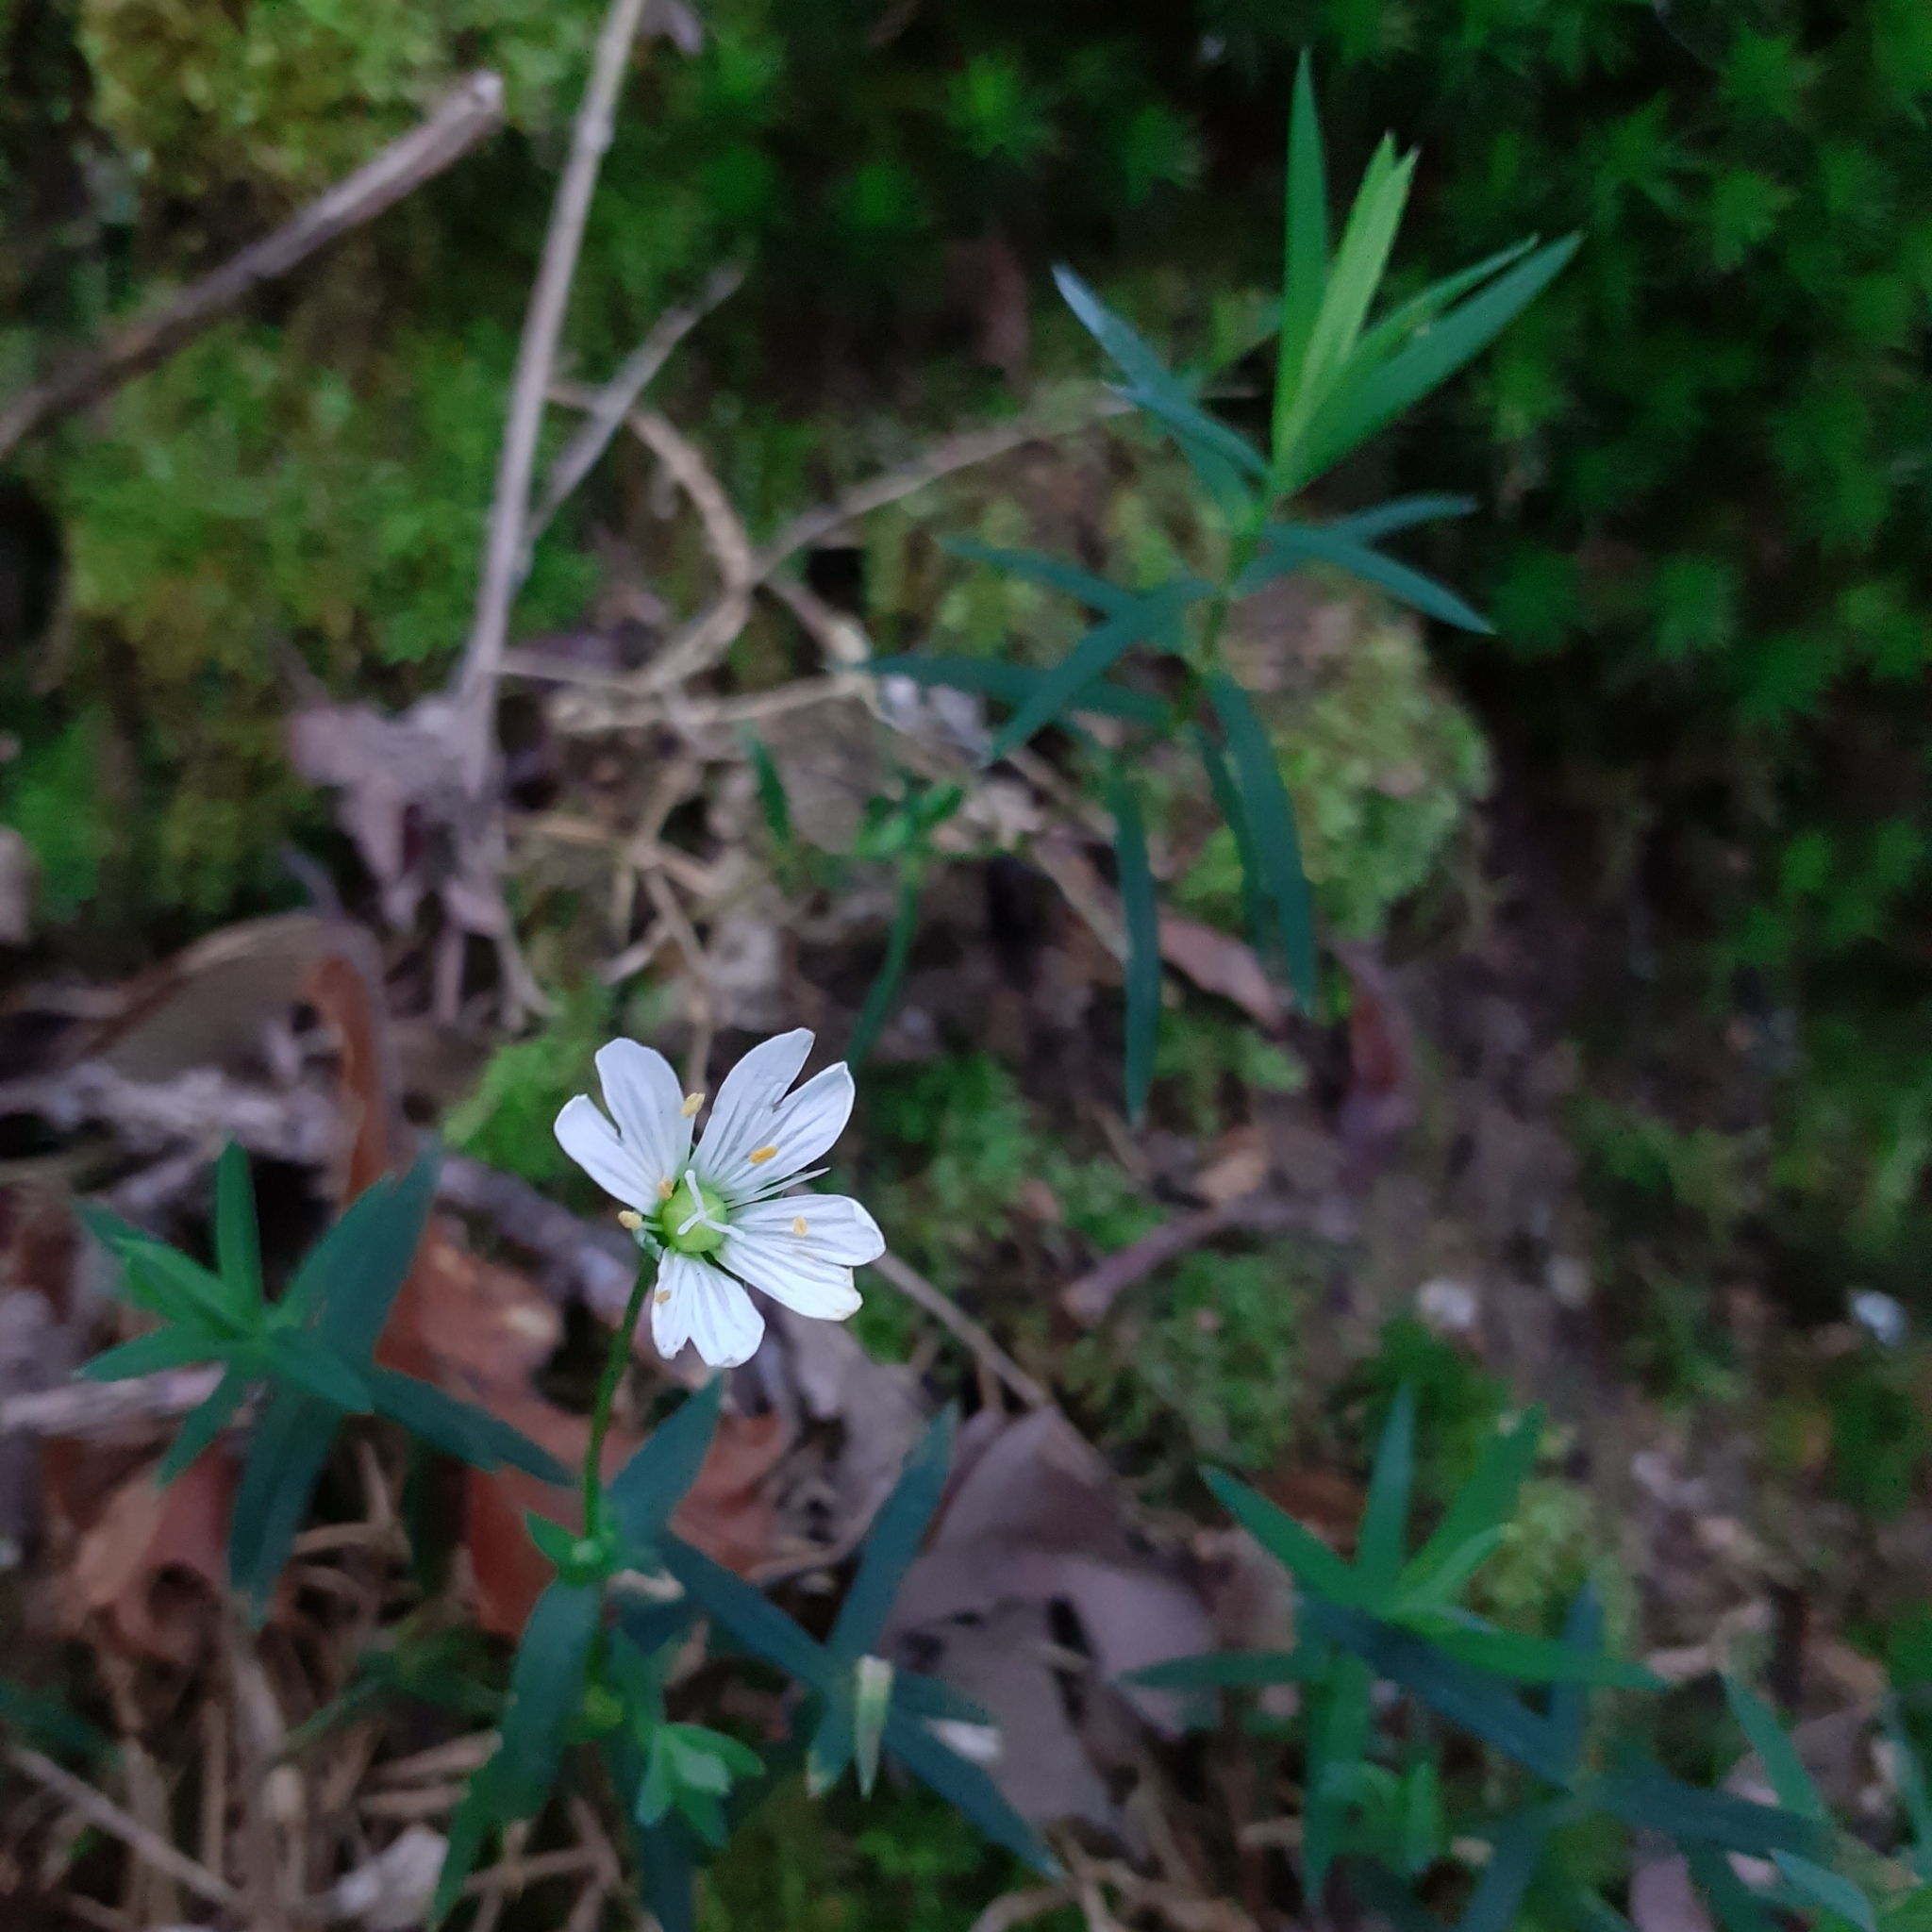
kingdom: Plantae
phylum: Tracheophyta
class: Magnoliopsida
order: Caryophyllales
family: Caryophyllaceae
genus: Rabelera
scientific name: Rabelera holostea
